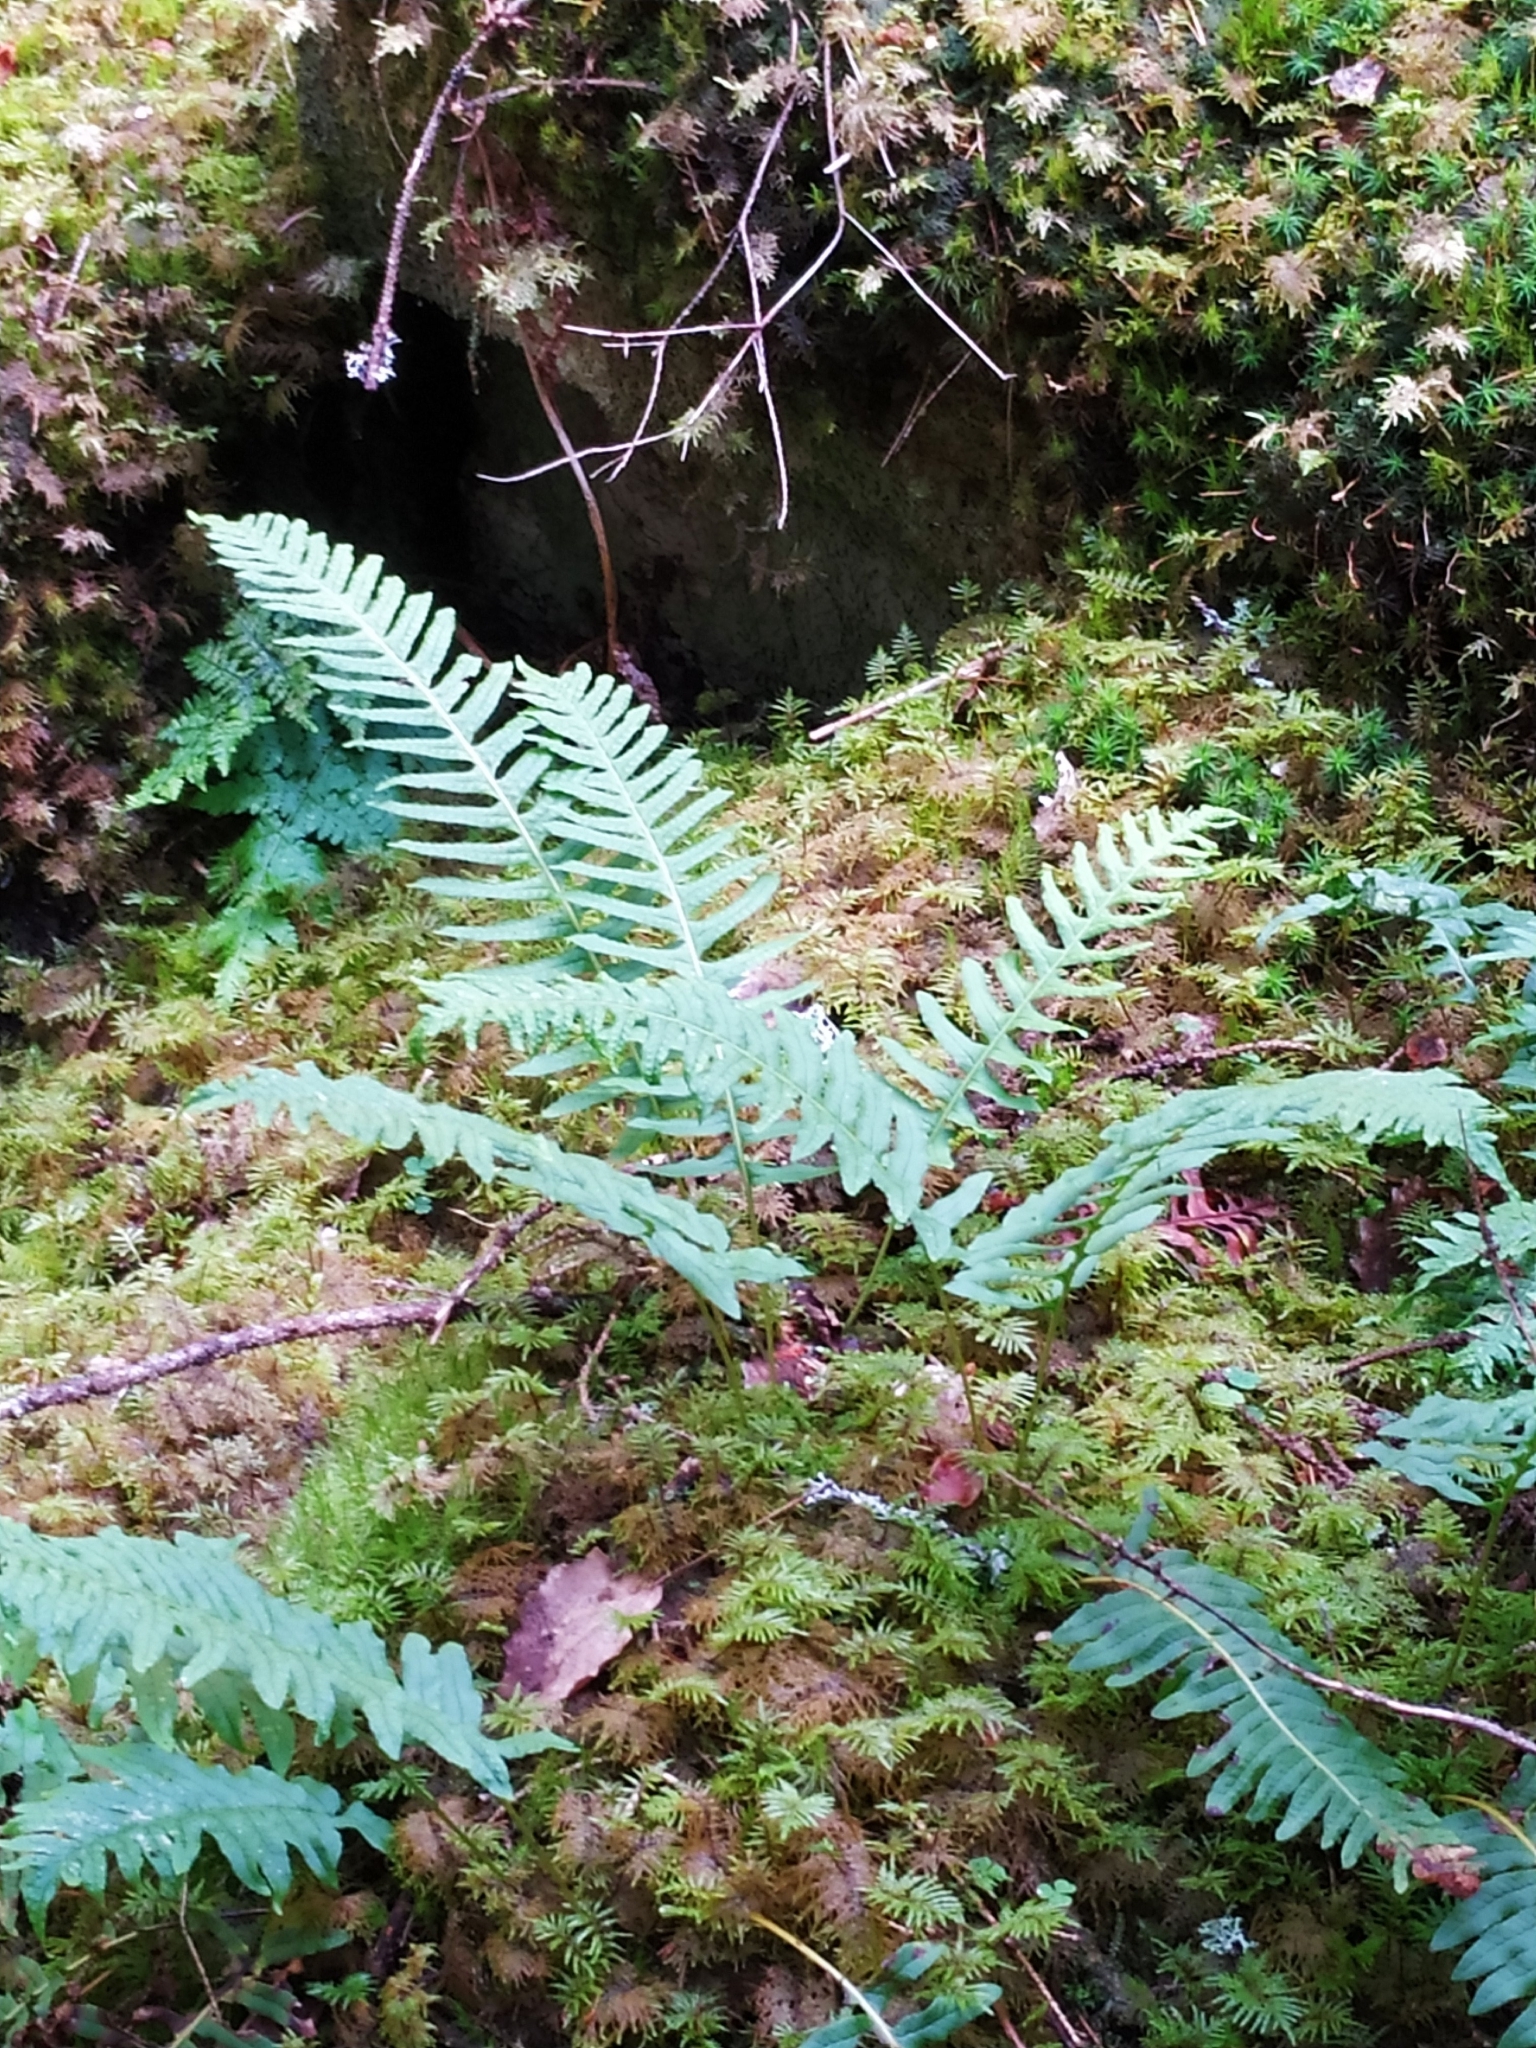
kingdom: Plantae
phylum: Tracheophyta
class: Polypodiopsida
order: Polypodiales
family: Polypodiaceae
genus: Polypodium
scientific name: Polypodium vulgare
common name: Common polypody
